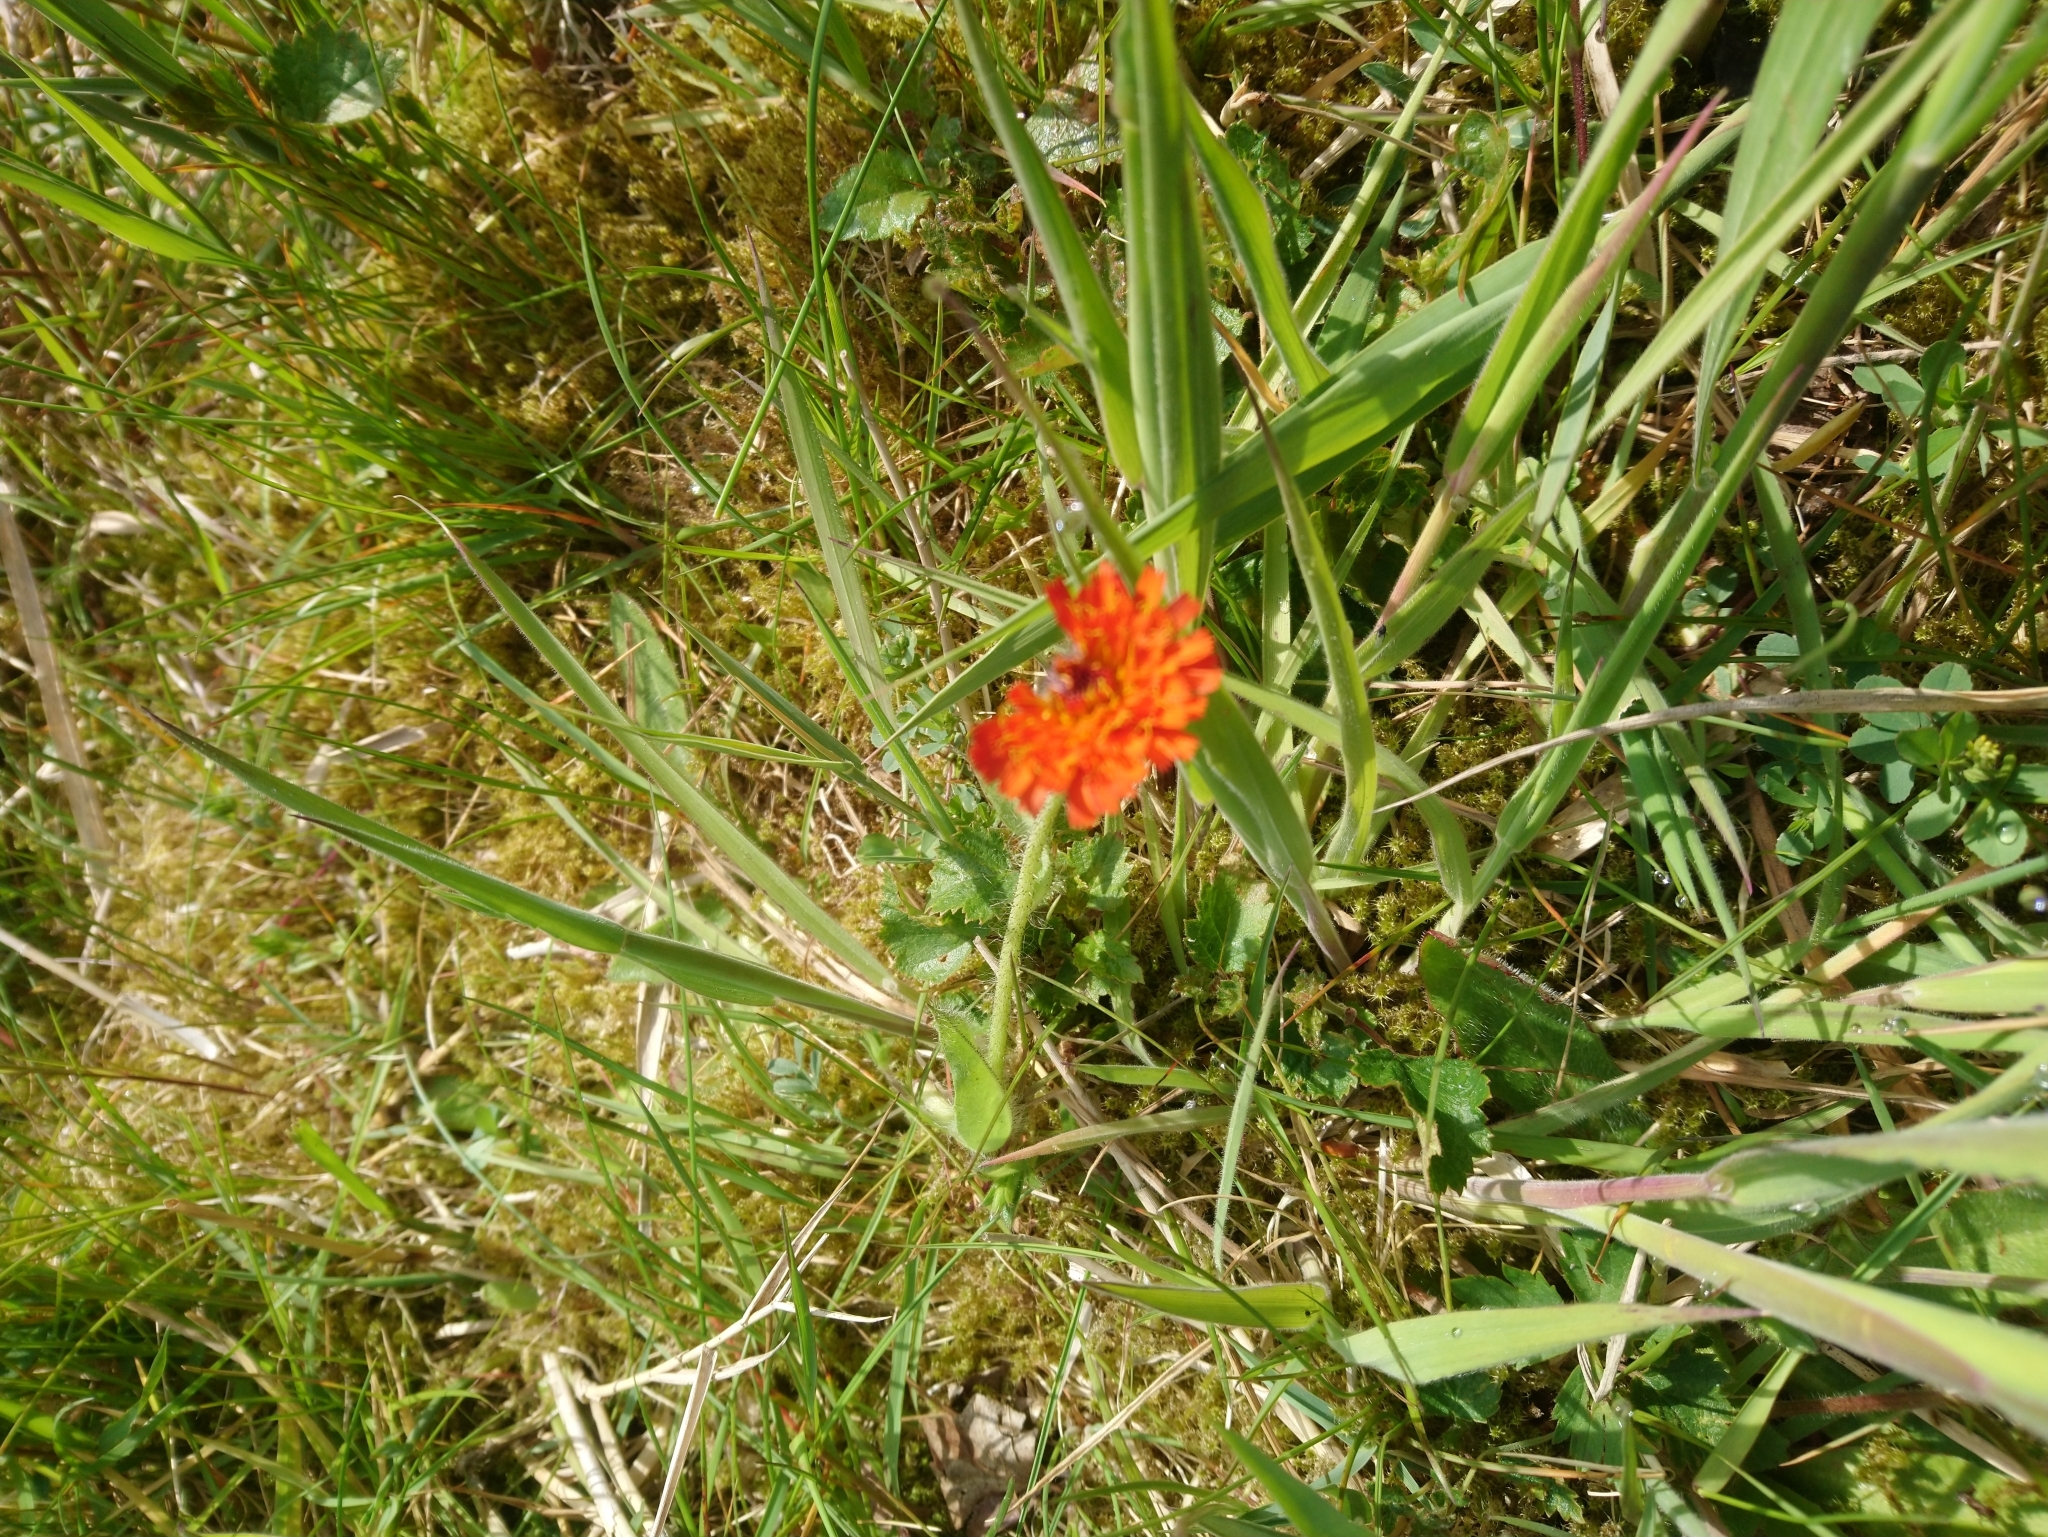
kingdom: Plantae
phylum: Tracheophyta
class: Magnoliopsida
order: Asterales
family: Asteraceae
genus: Pilosella
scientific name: Pilosella aurantiaca
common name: Fox-and-cubs
